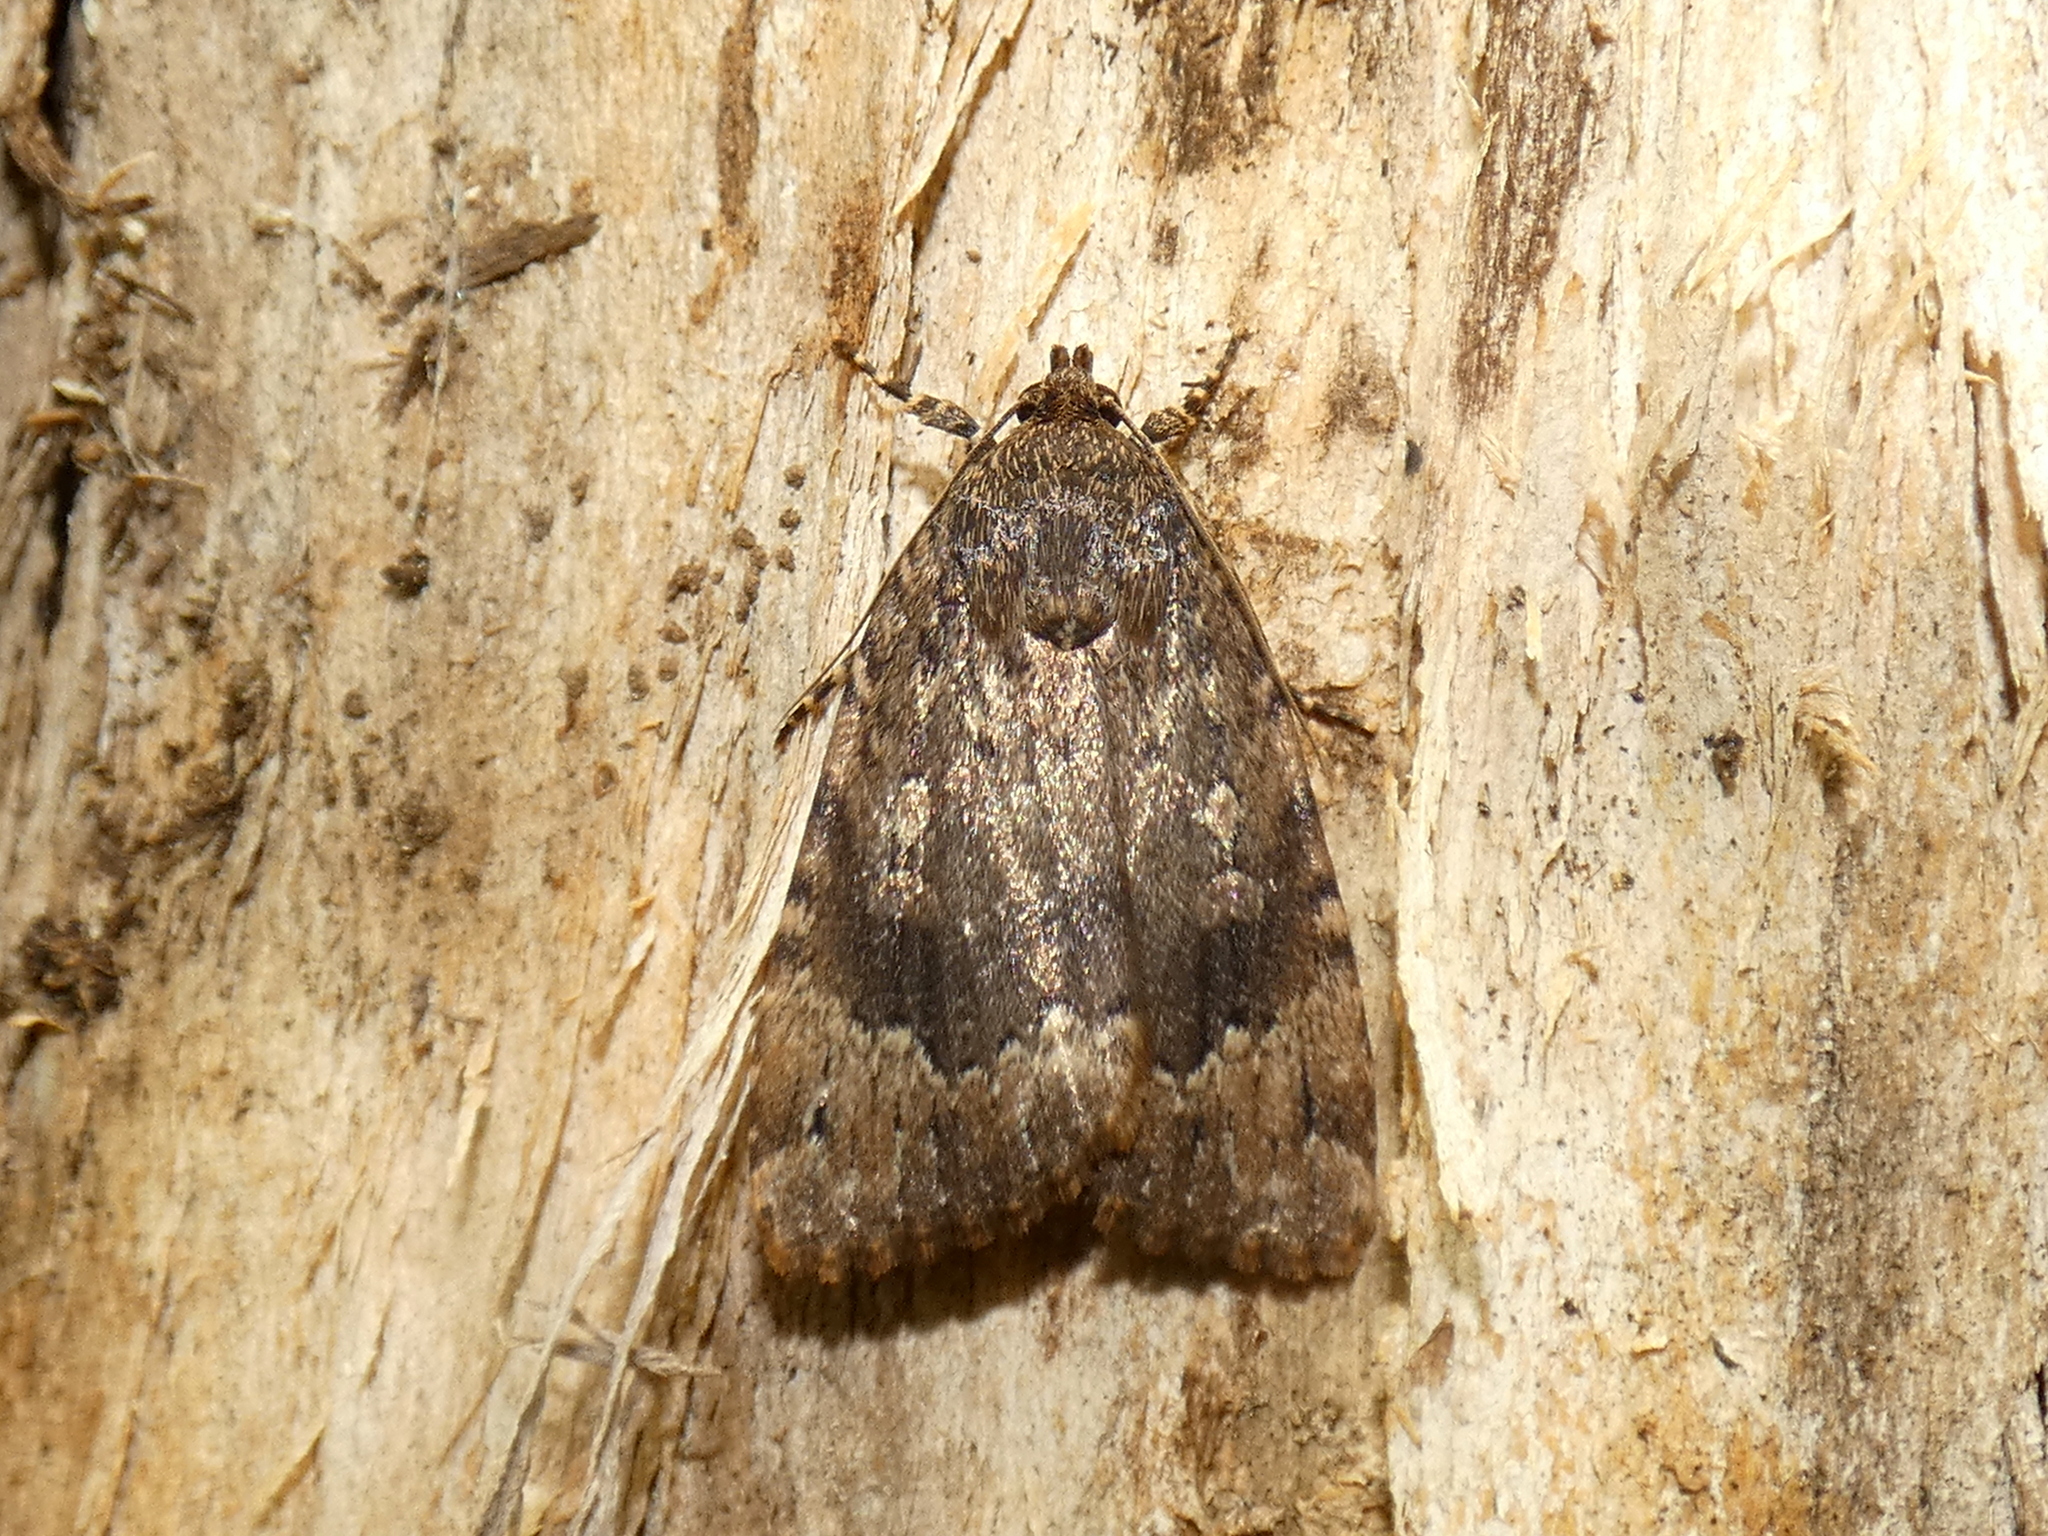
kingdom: Animalia
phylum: Arthropoda
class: Insecta
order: Lepidoptera
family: Noctuidae
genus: Amphipyra
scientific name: Amphipyra pyramidoides
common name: American copper underwing
